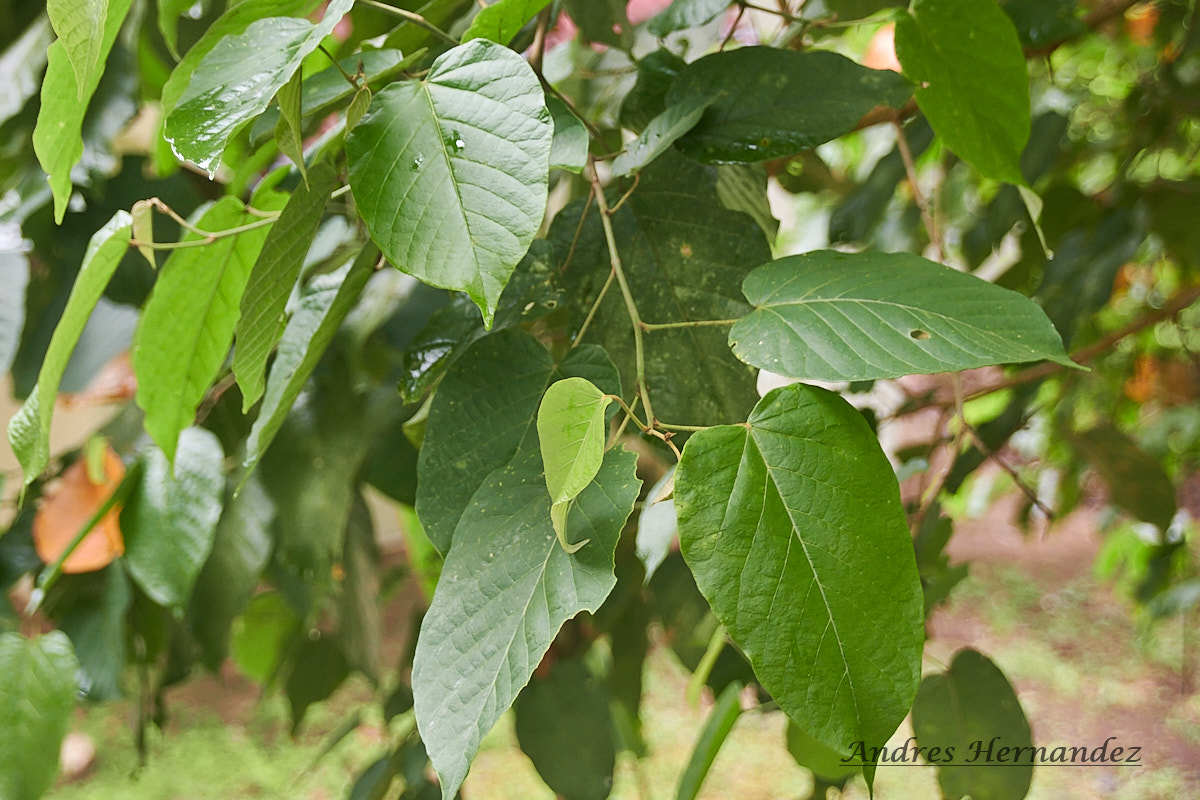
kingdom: Plantae
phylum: Tracheophyta
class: Magnoliopsida
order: Malpighiales
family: Euphorbiaceae
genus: Croton
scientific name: Croton billbergianus
